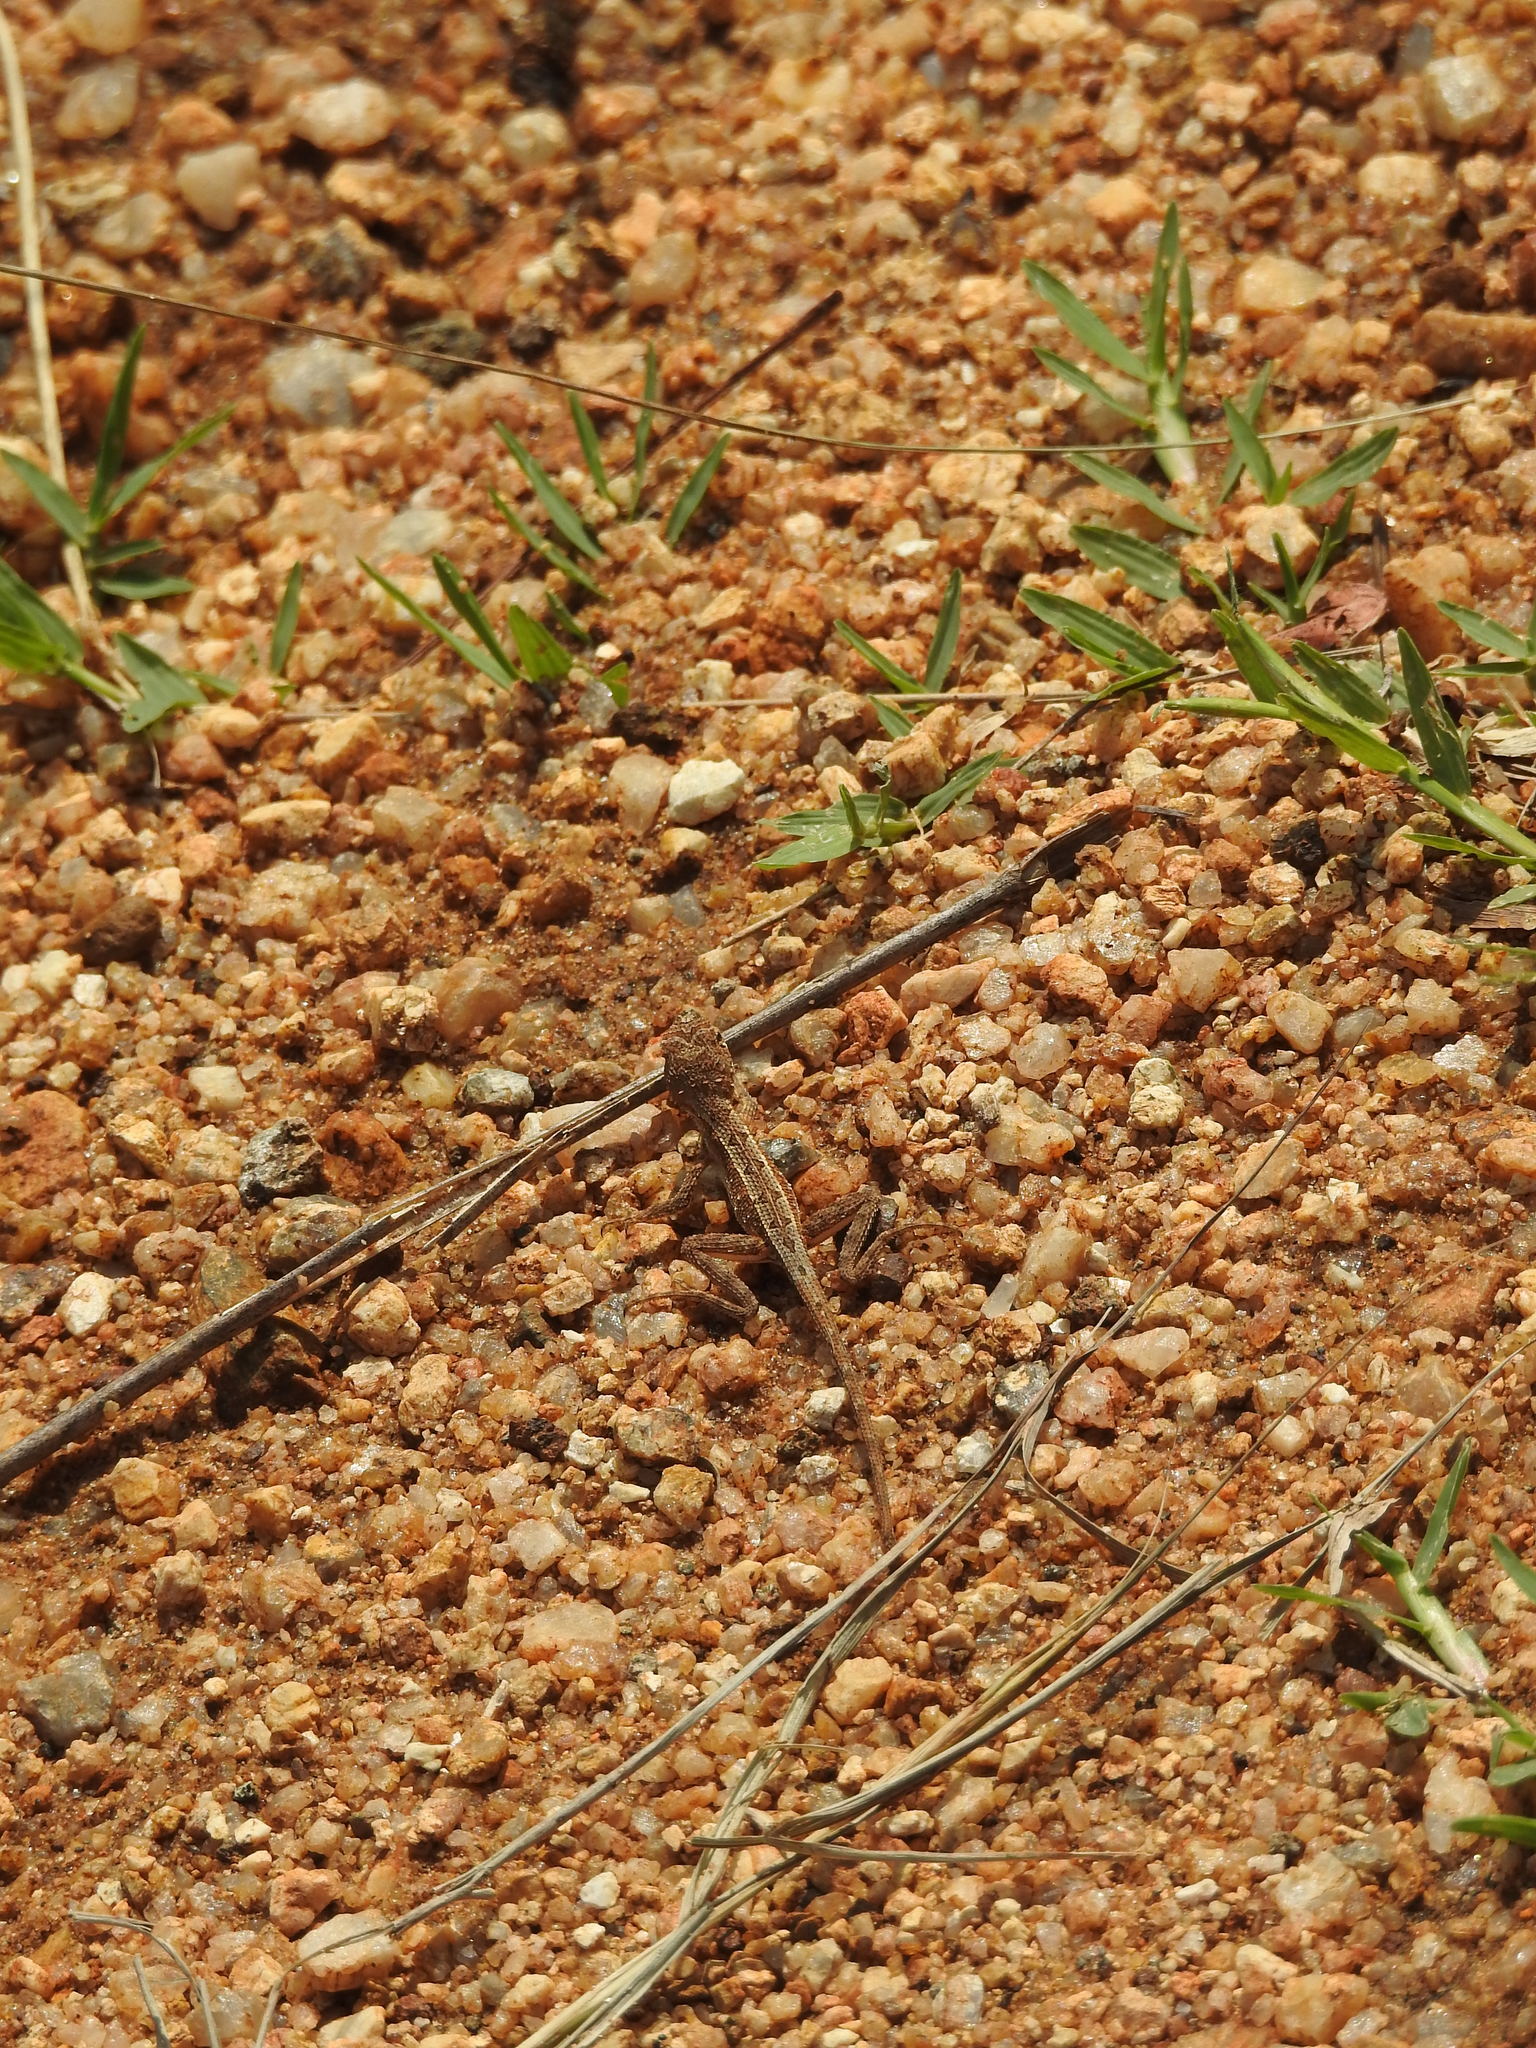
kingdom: Animalia
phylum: Chordata
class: Squamata
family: Agamidae
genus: Sitana
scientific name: Sitana ponticeriana
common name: Pondichéry fan throated lizard
